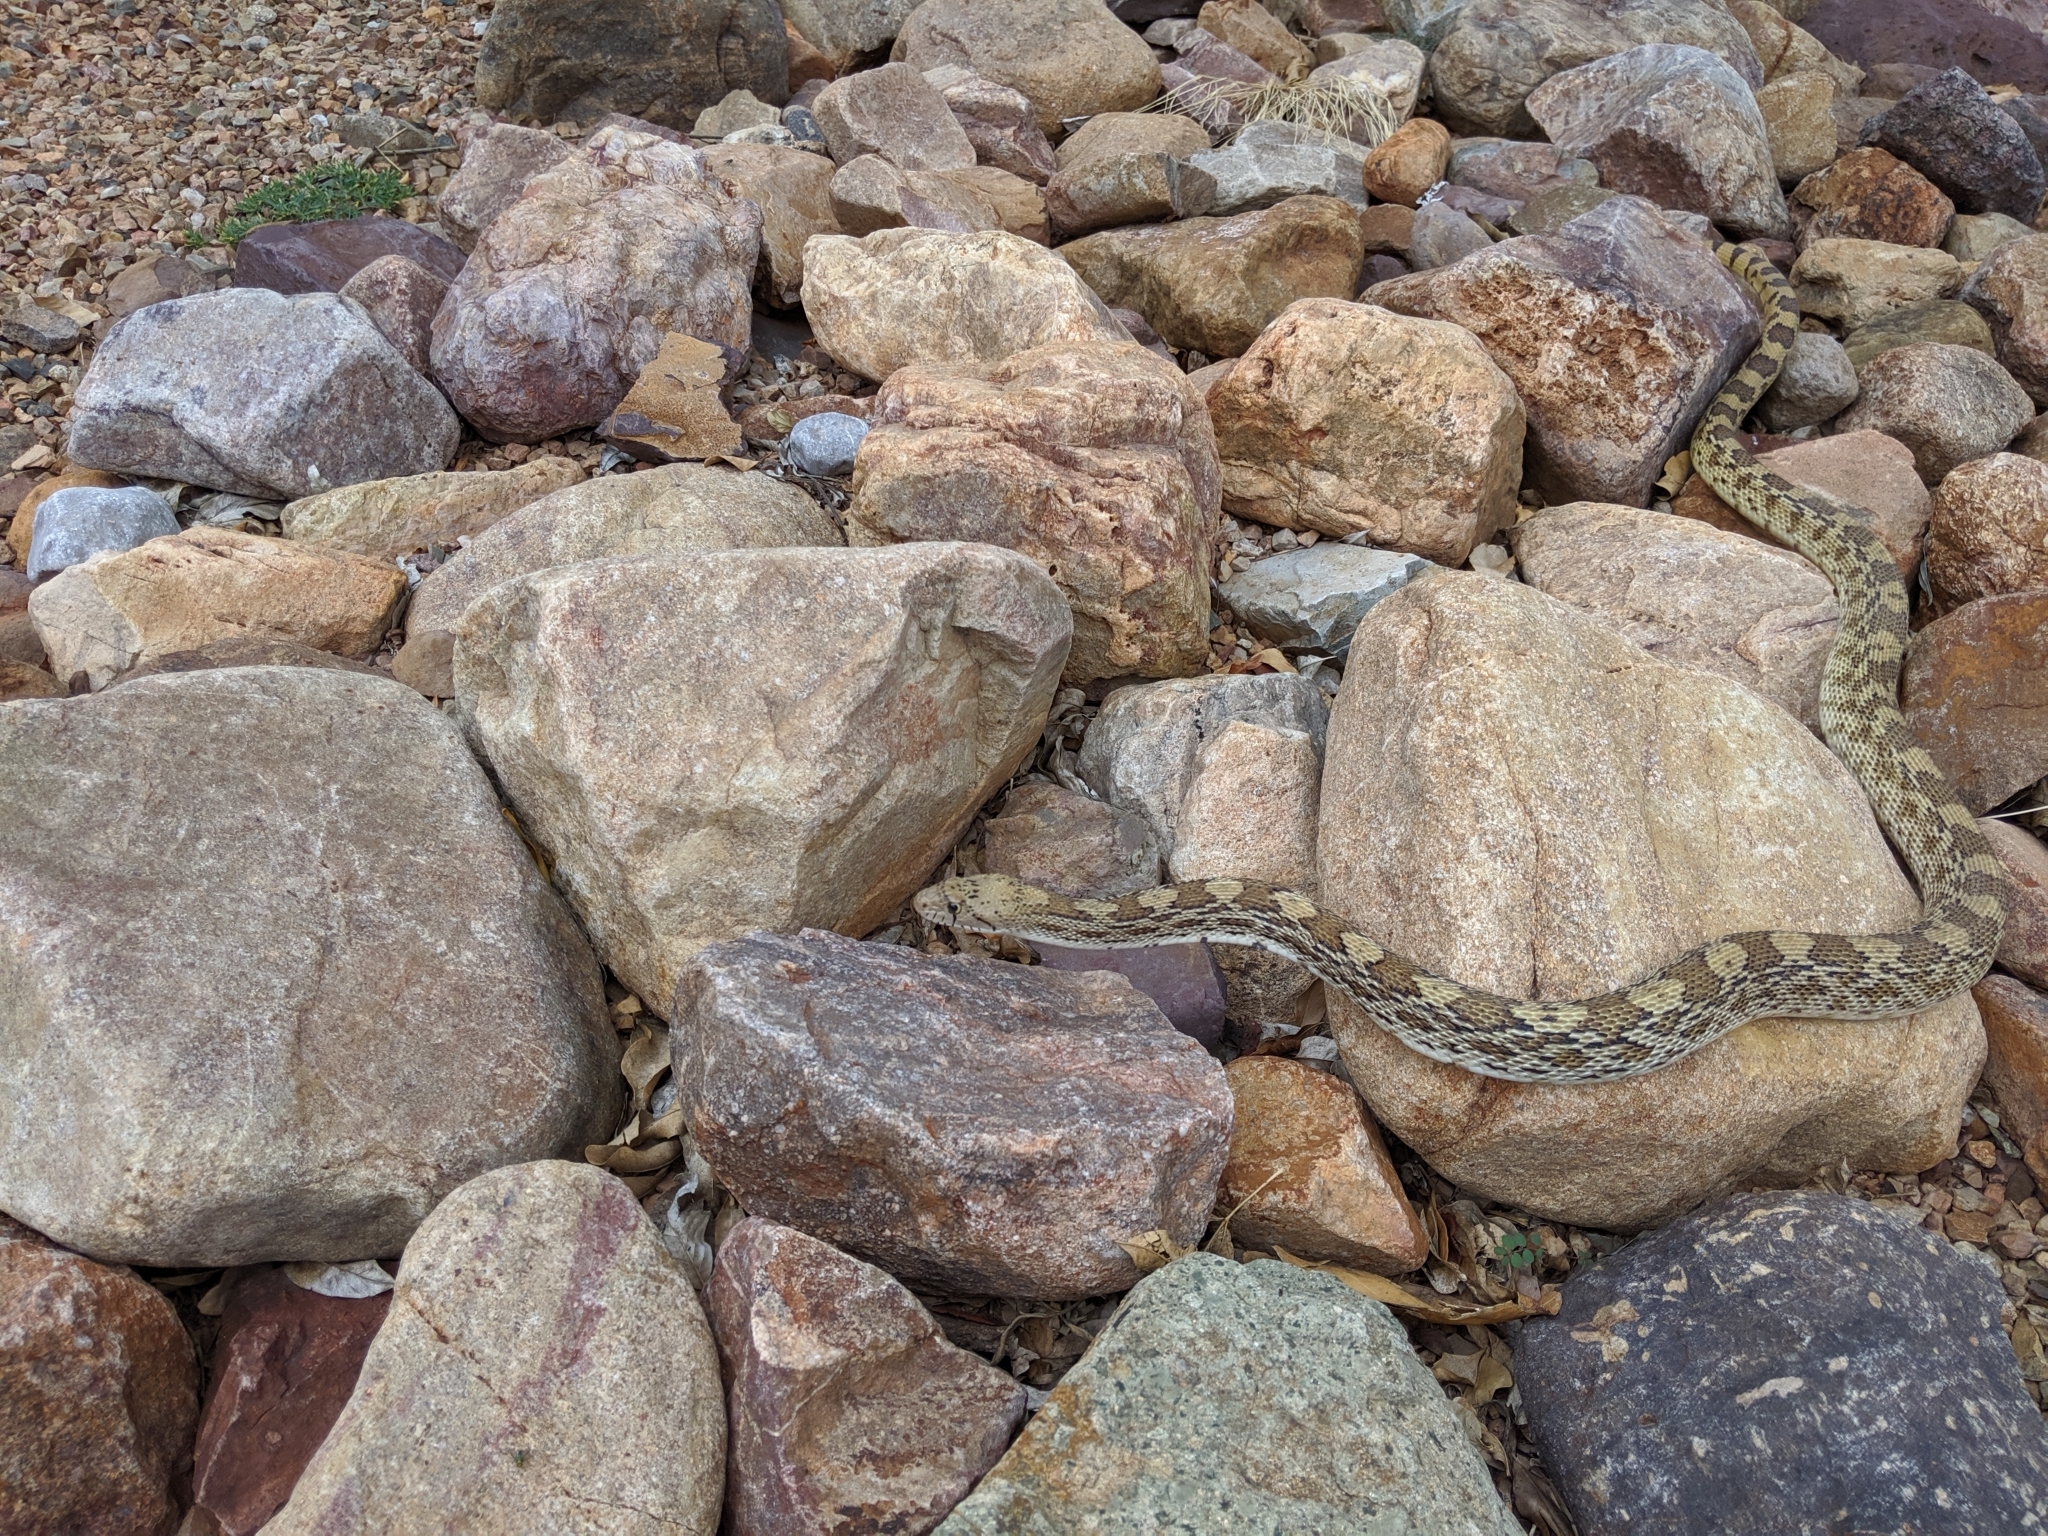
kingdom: Animalia
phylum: Chordata
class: Squamata
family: Colubridae
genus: Pituophis
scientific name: Pituophis catenifer
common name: Gopher snake
